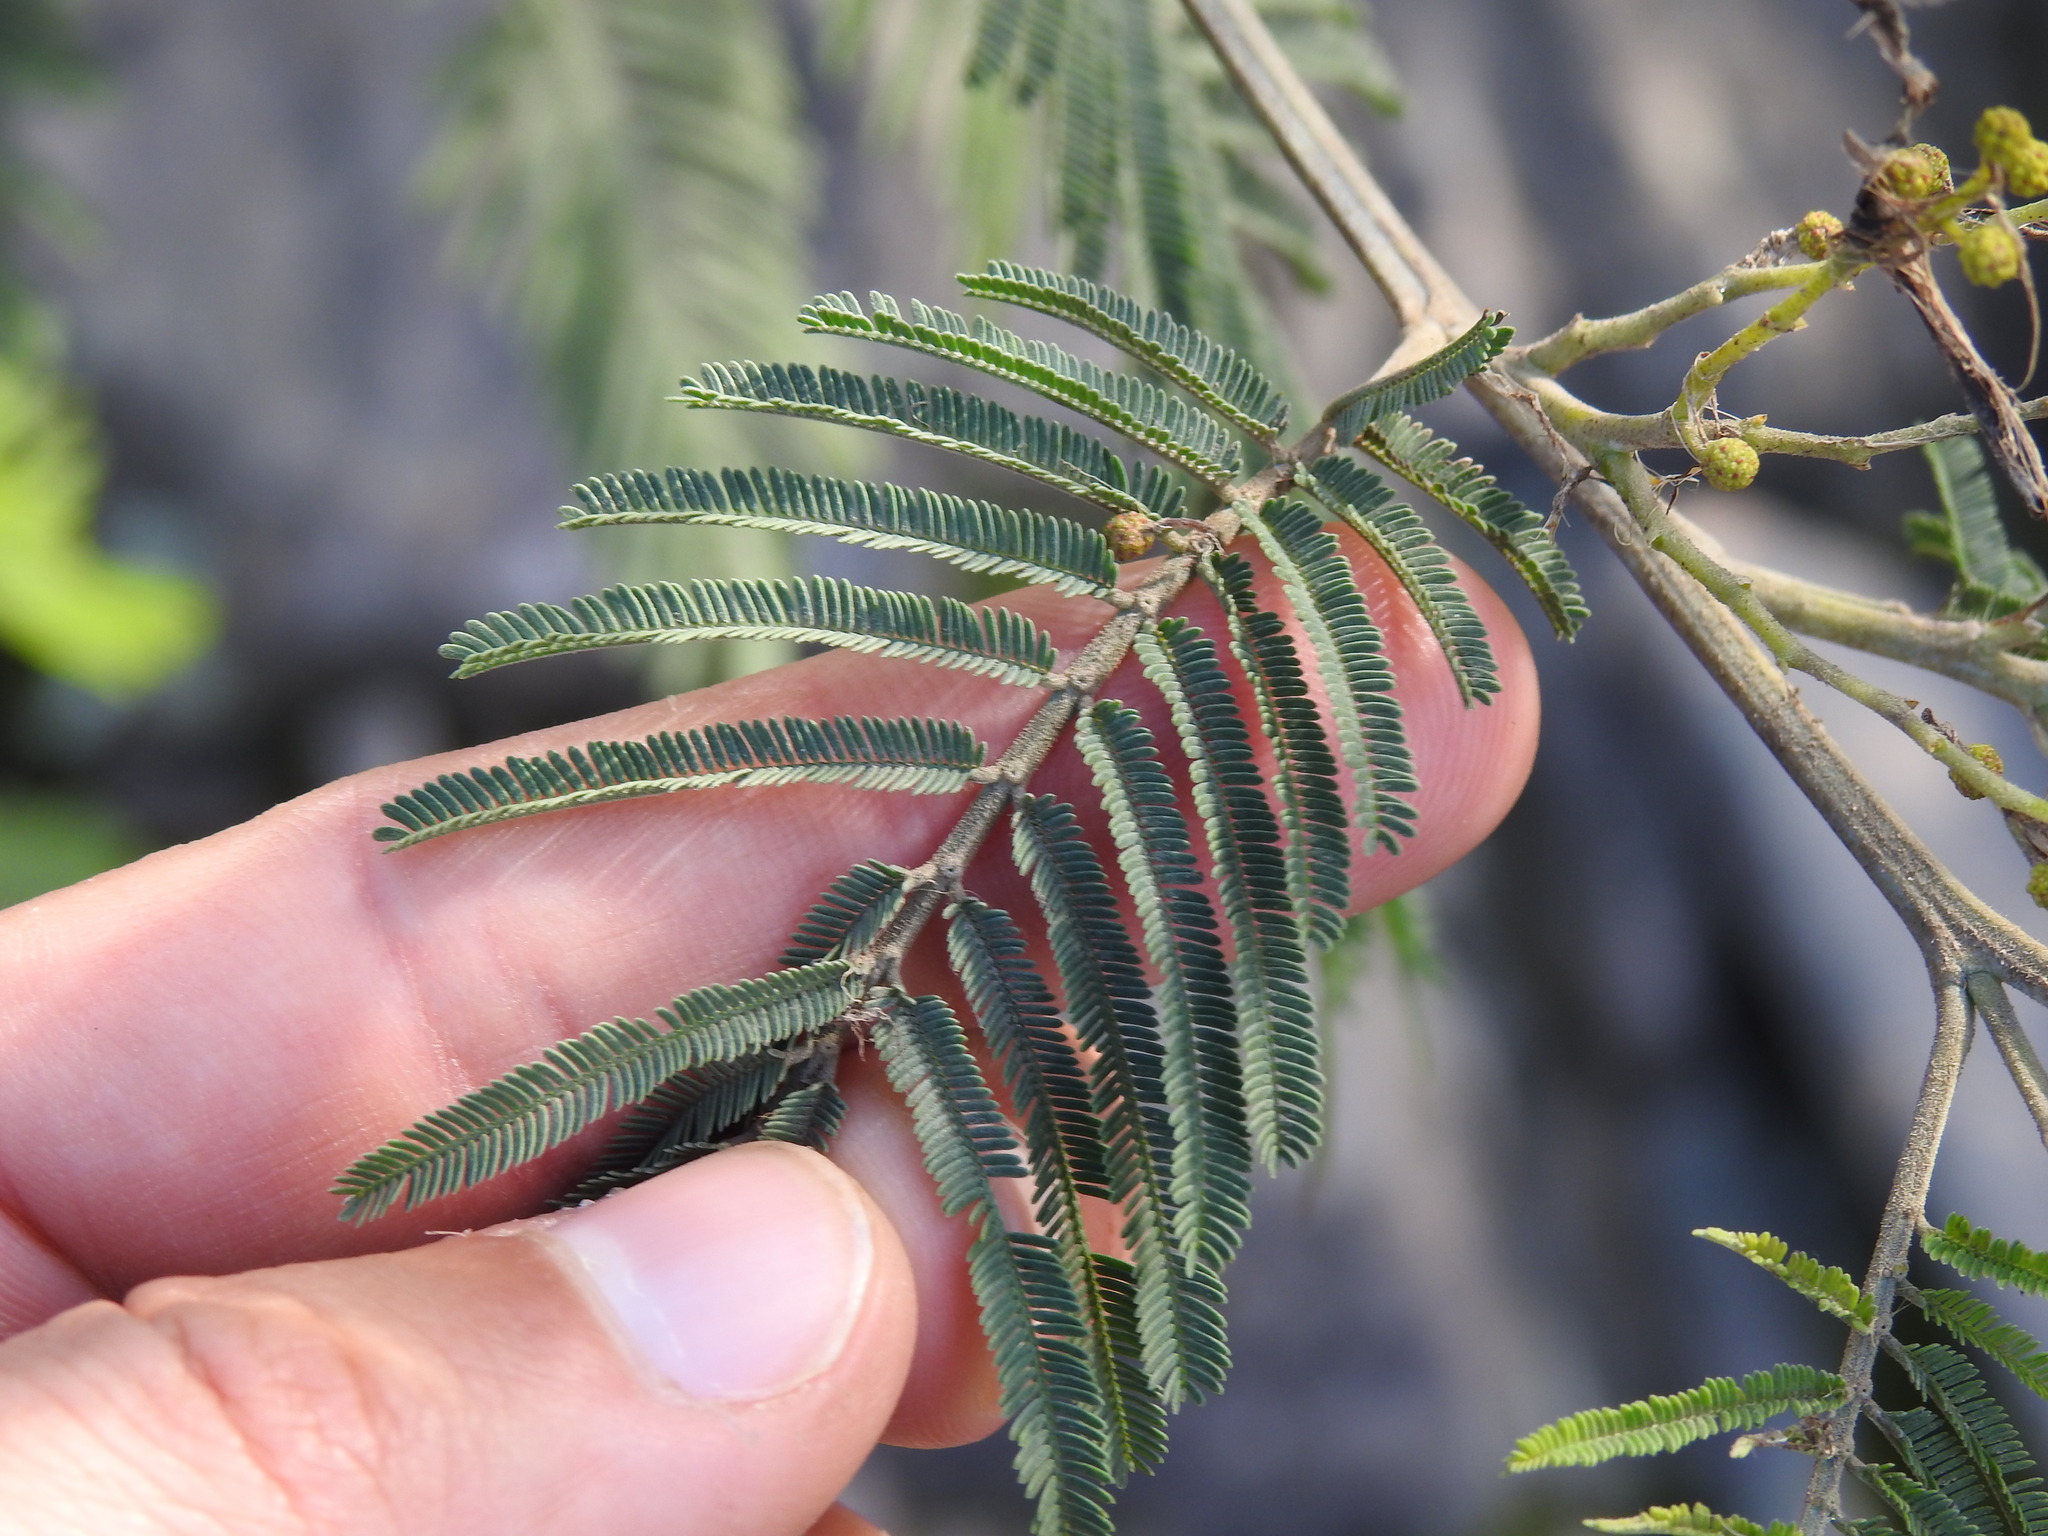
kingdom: Plantae
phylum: Tracheophyta
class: Magnoliopsida
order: Fabales
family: Fabaceae
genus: Acacia
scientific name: Acacia dealbata
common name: Silver wattle
